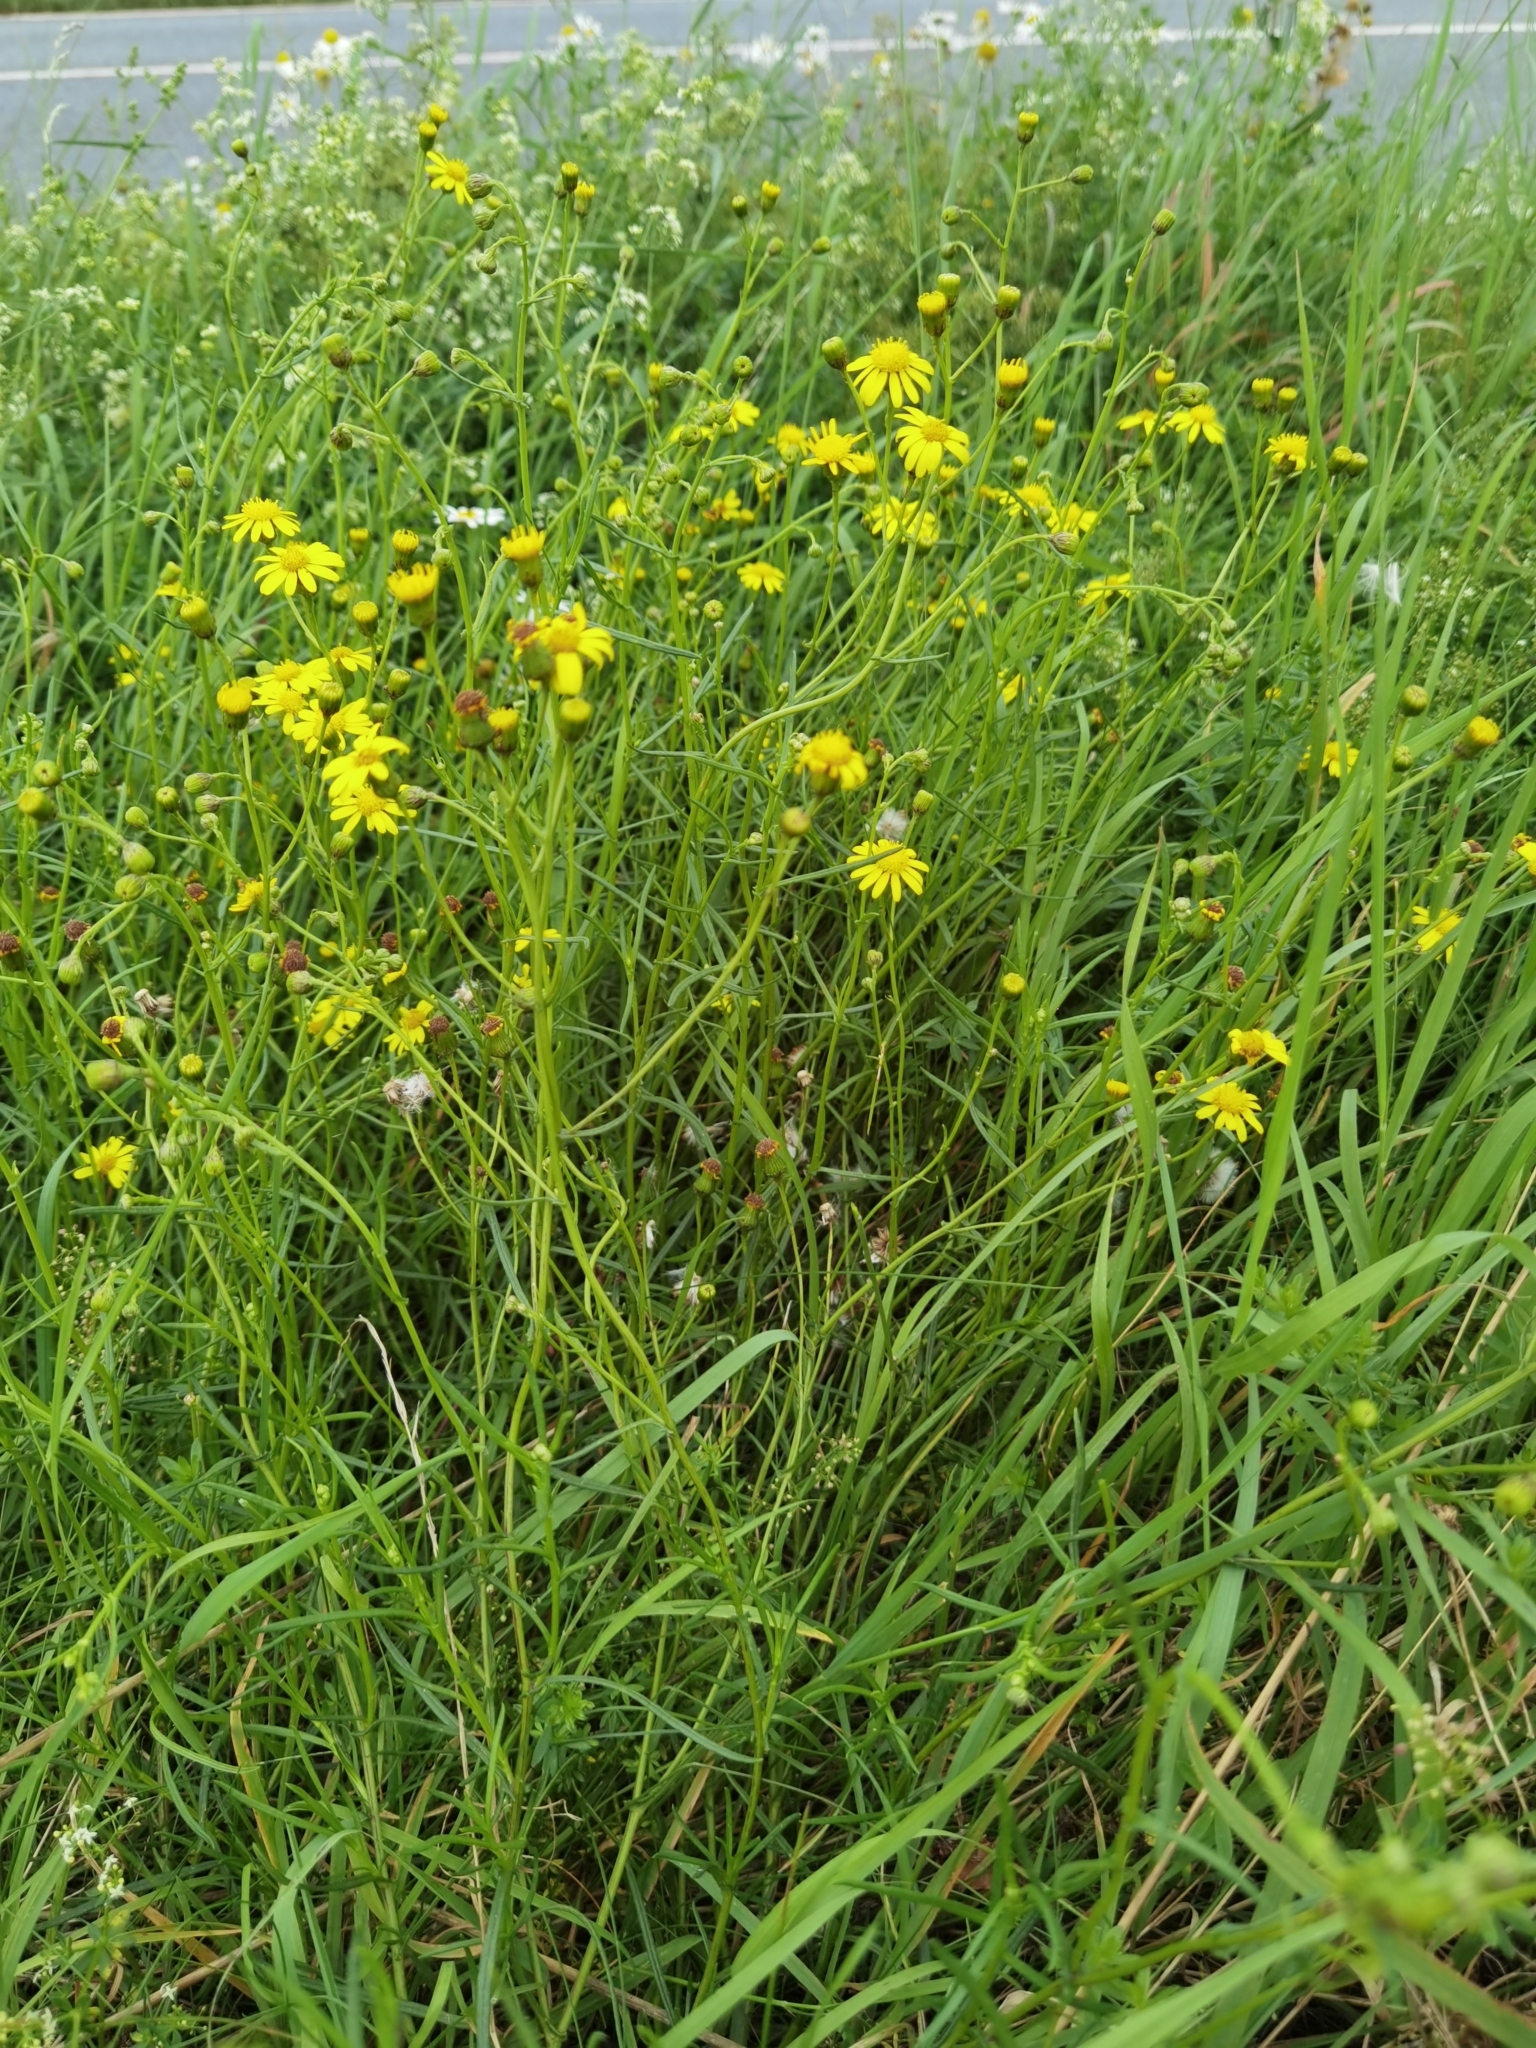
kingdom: Plantae
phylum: Tracheophyta
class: Magnoliopsida
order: Asterales
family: Asteraceae
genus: Senecio
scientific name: Senecio inaequidens
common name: Narrow-leaved ragwort
